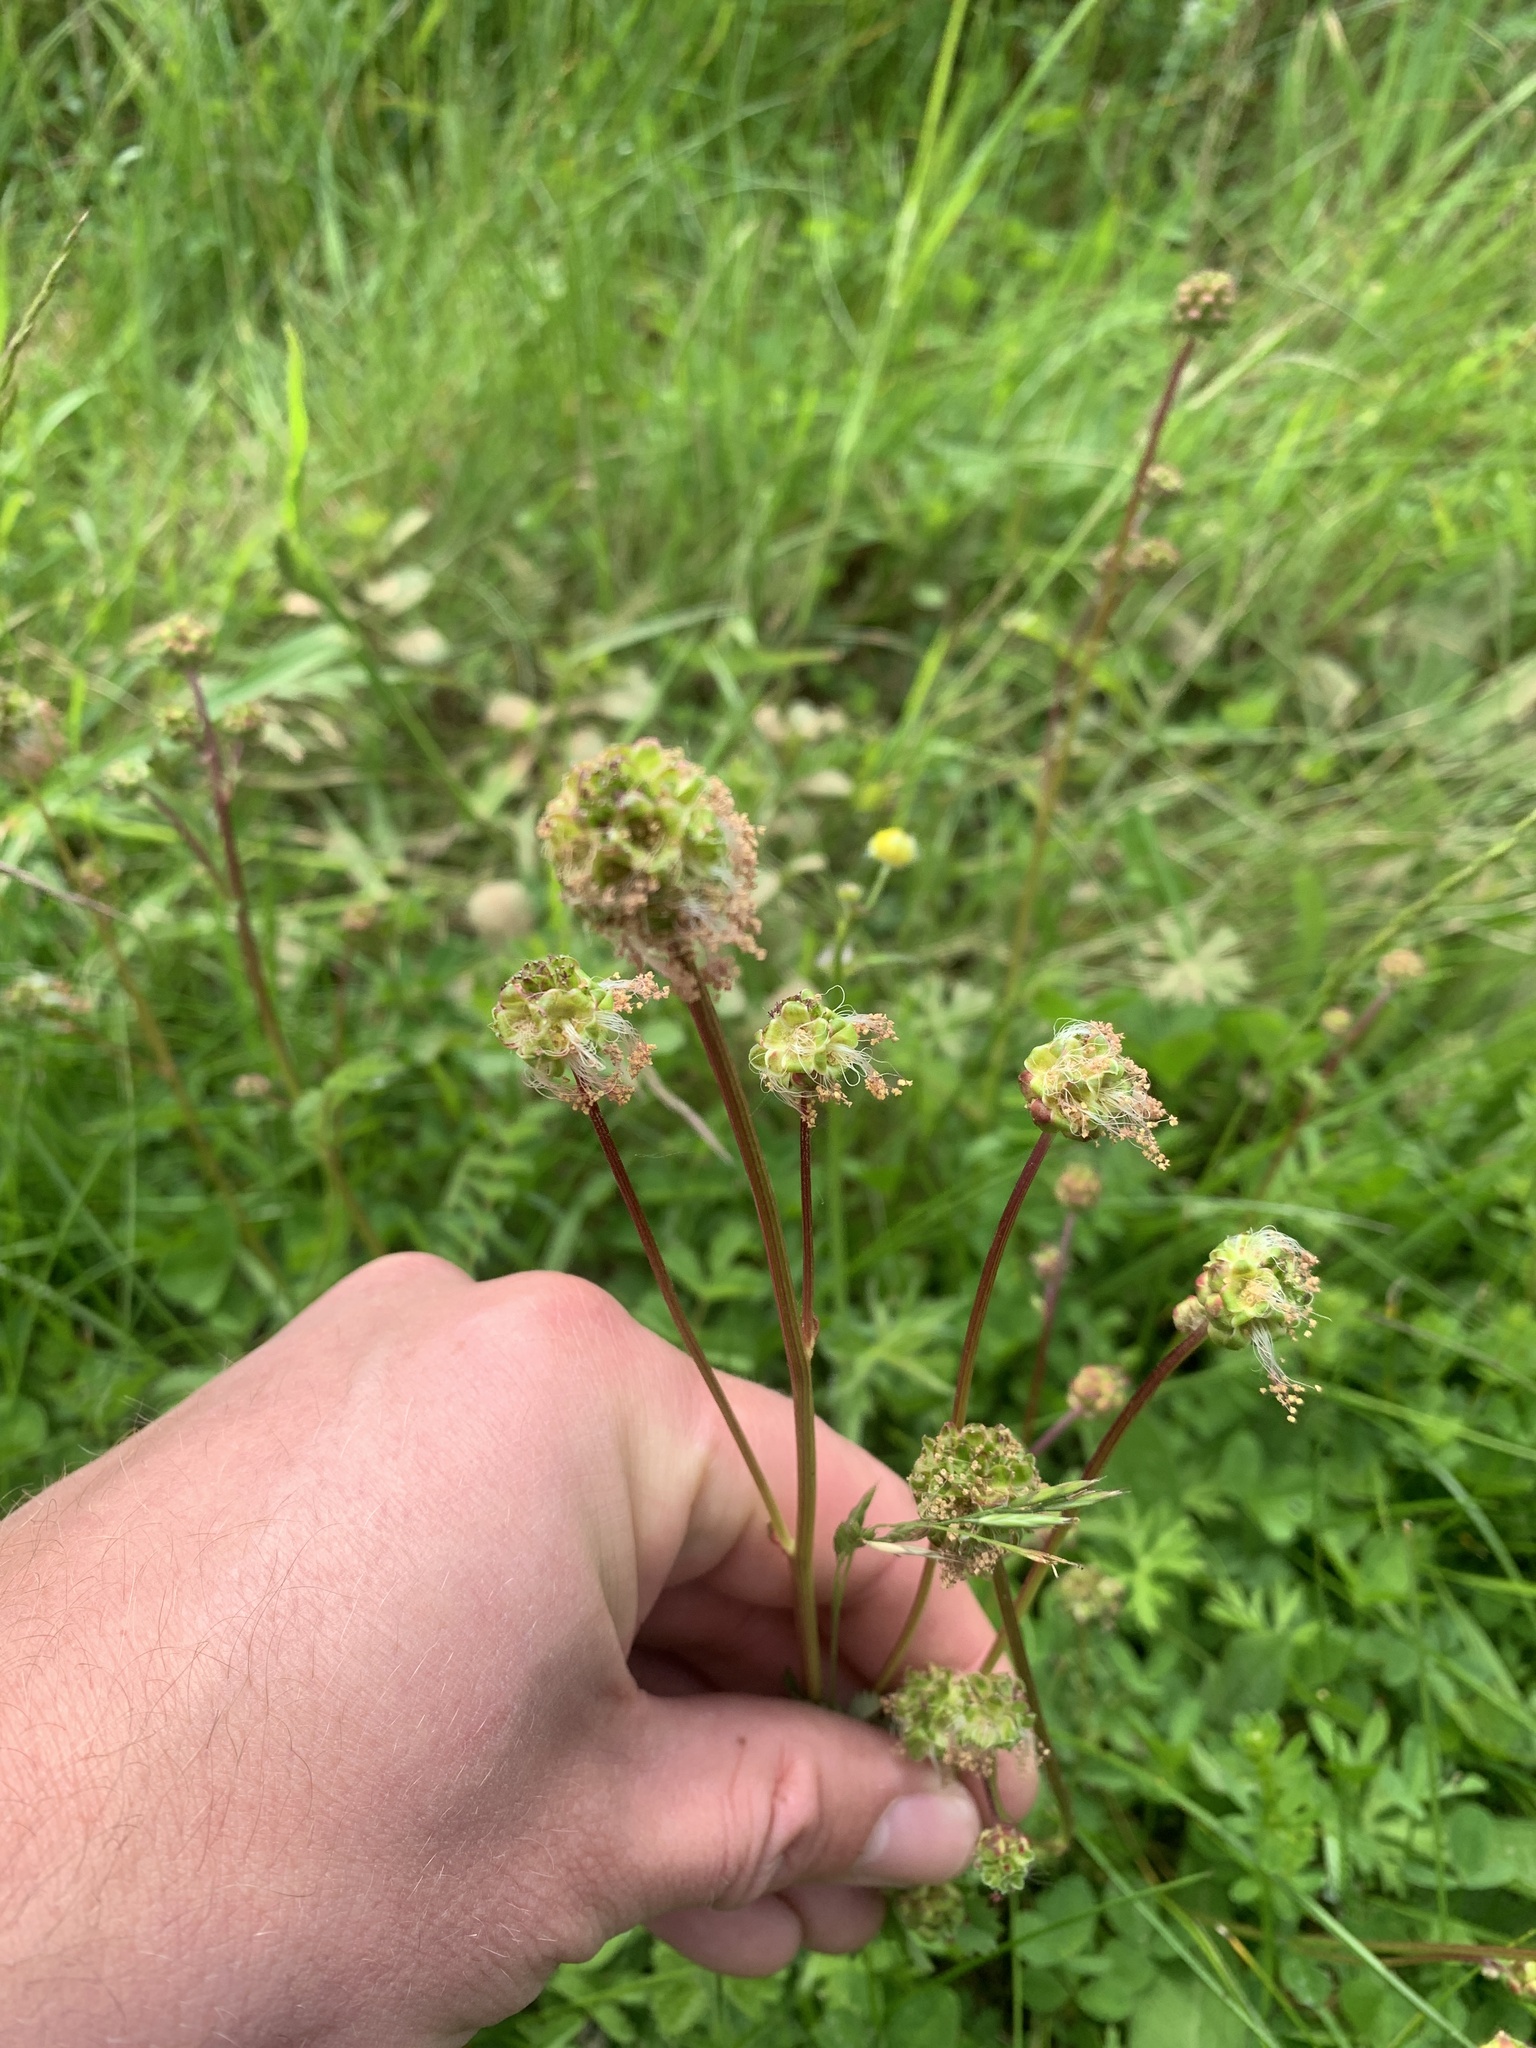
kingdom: Plantae
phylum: Tracheophyta
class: Magnoliopsida
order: Rosales
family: Rosaceae
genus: Poterium
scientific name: Poterium sanguisorba
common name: Salad burnet
